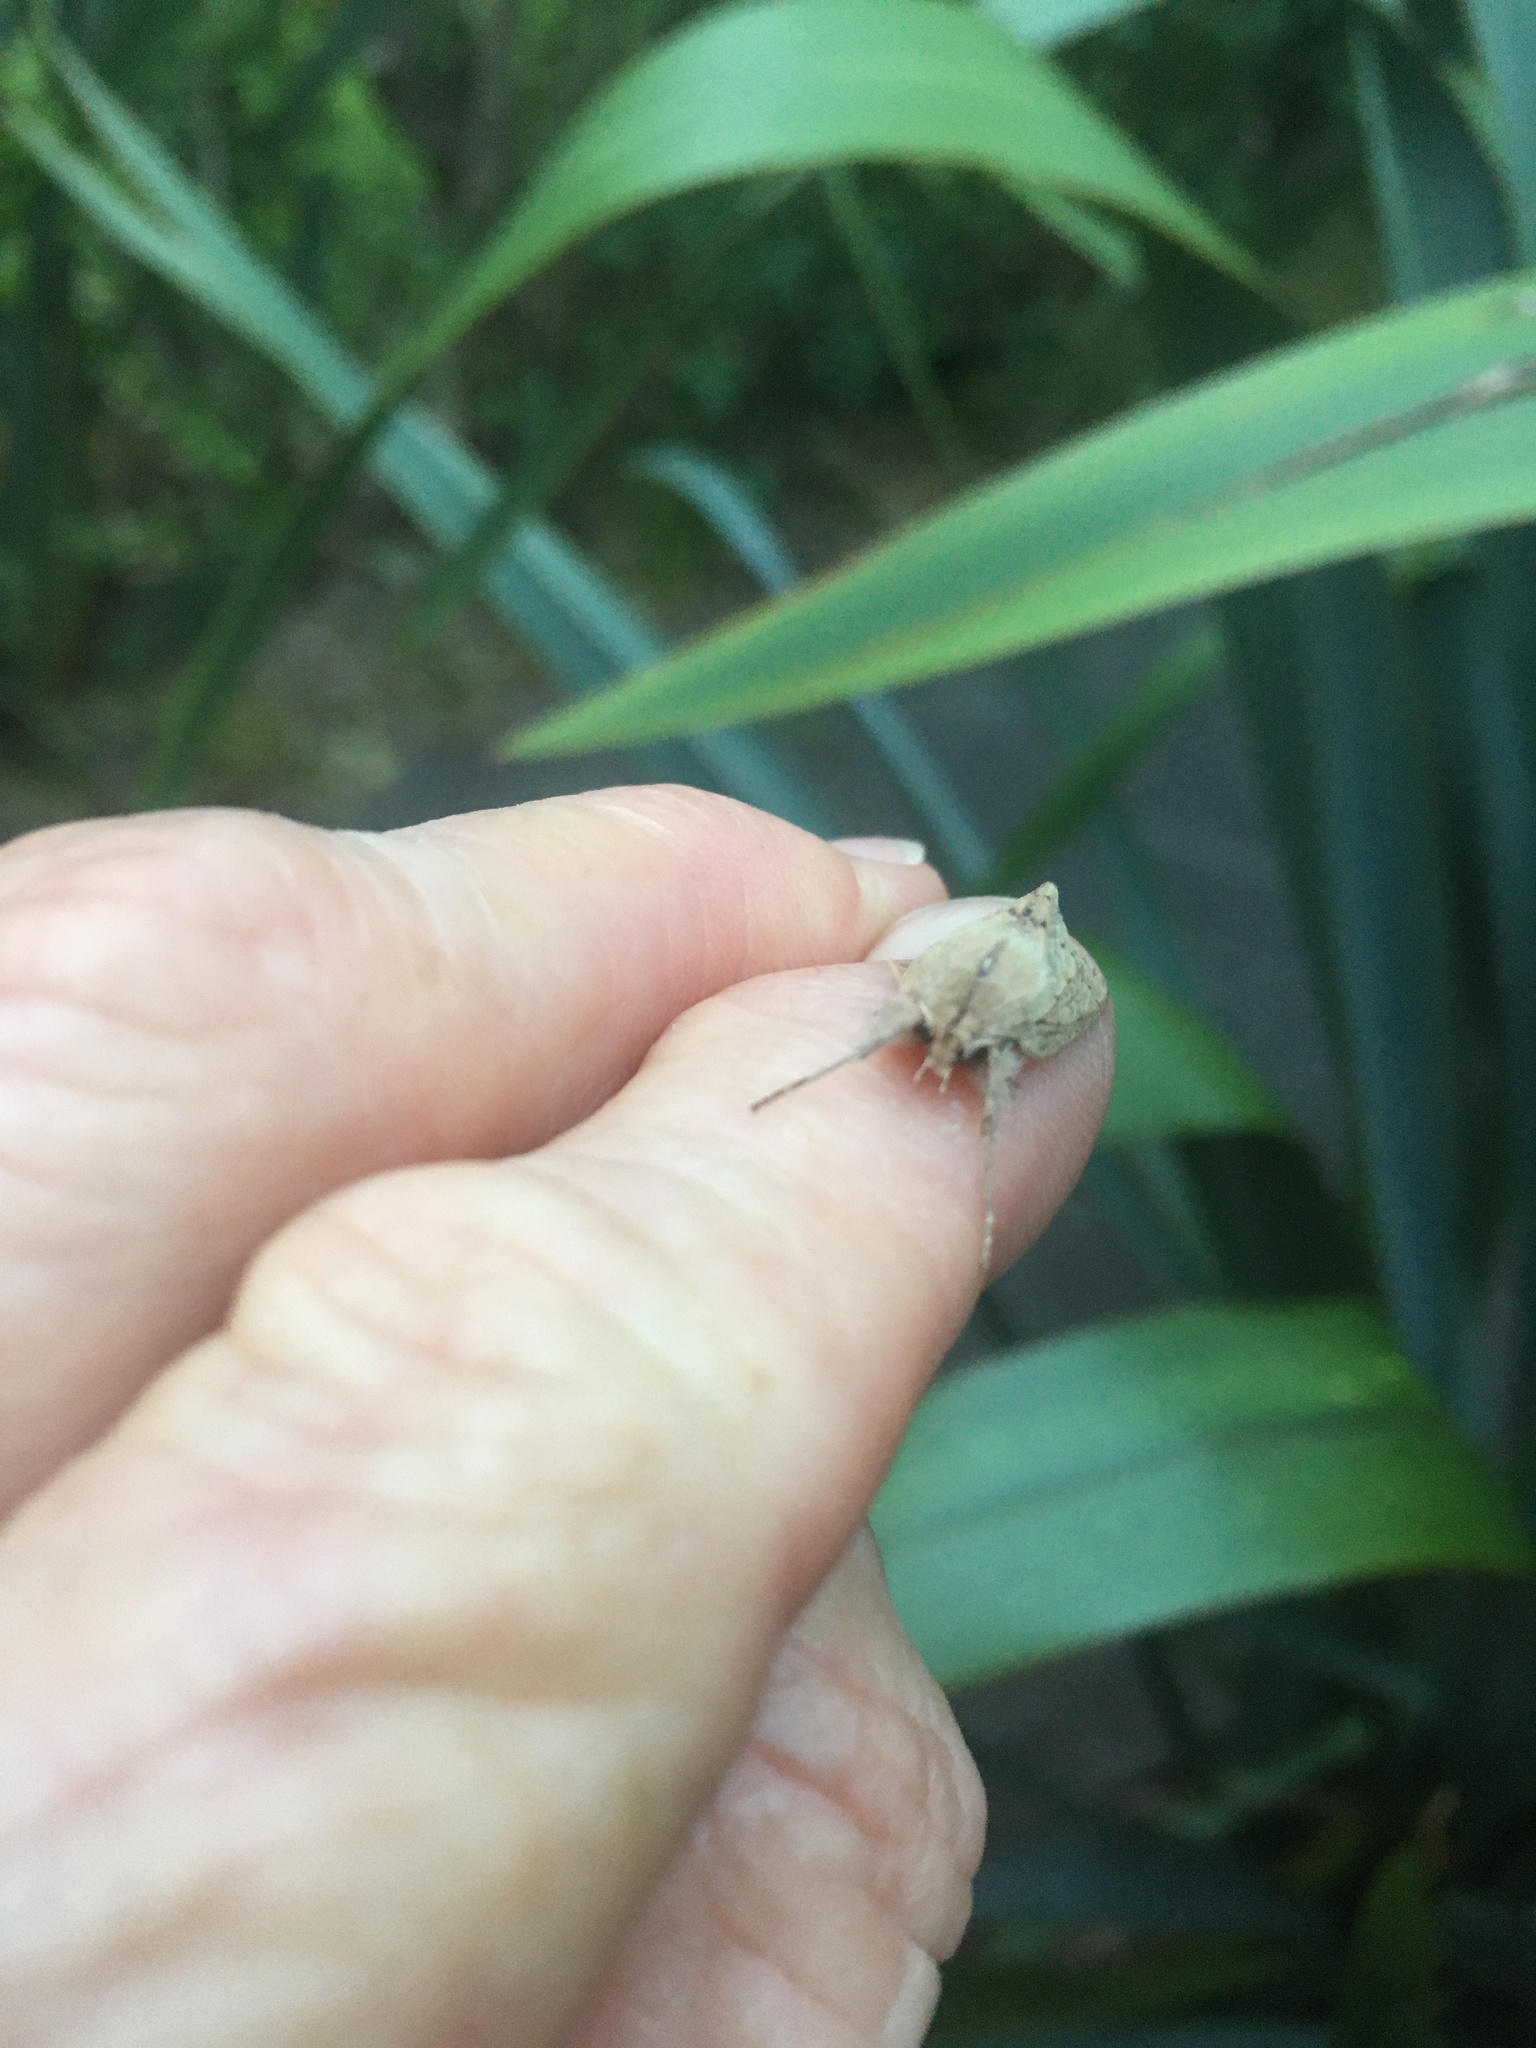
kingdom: Animalia
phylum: Arthropoda
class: Insecta
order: Lepidoptera
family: Geometridae
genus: Declana
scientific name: Declana leptomera
